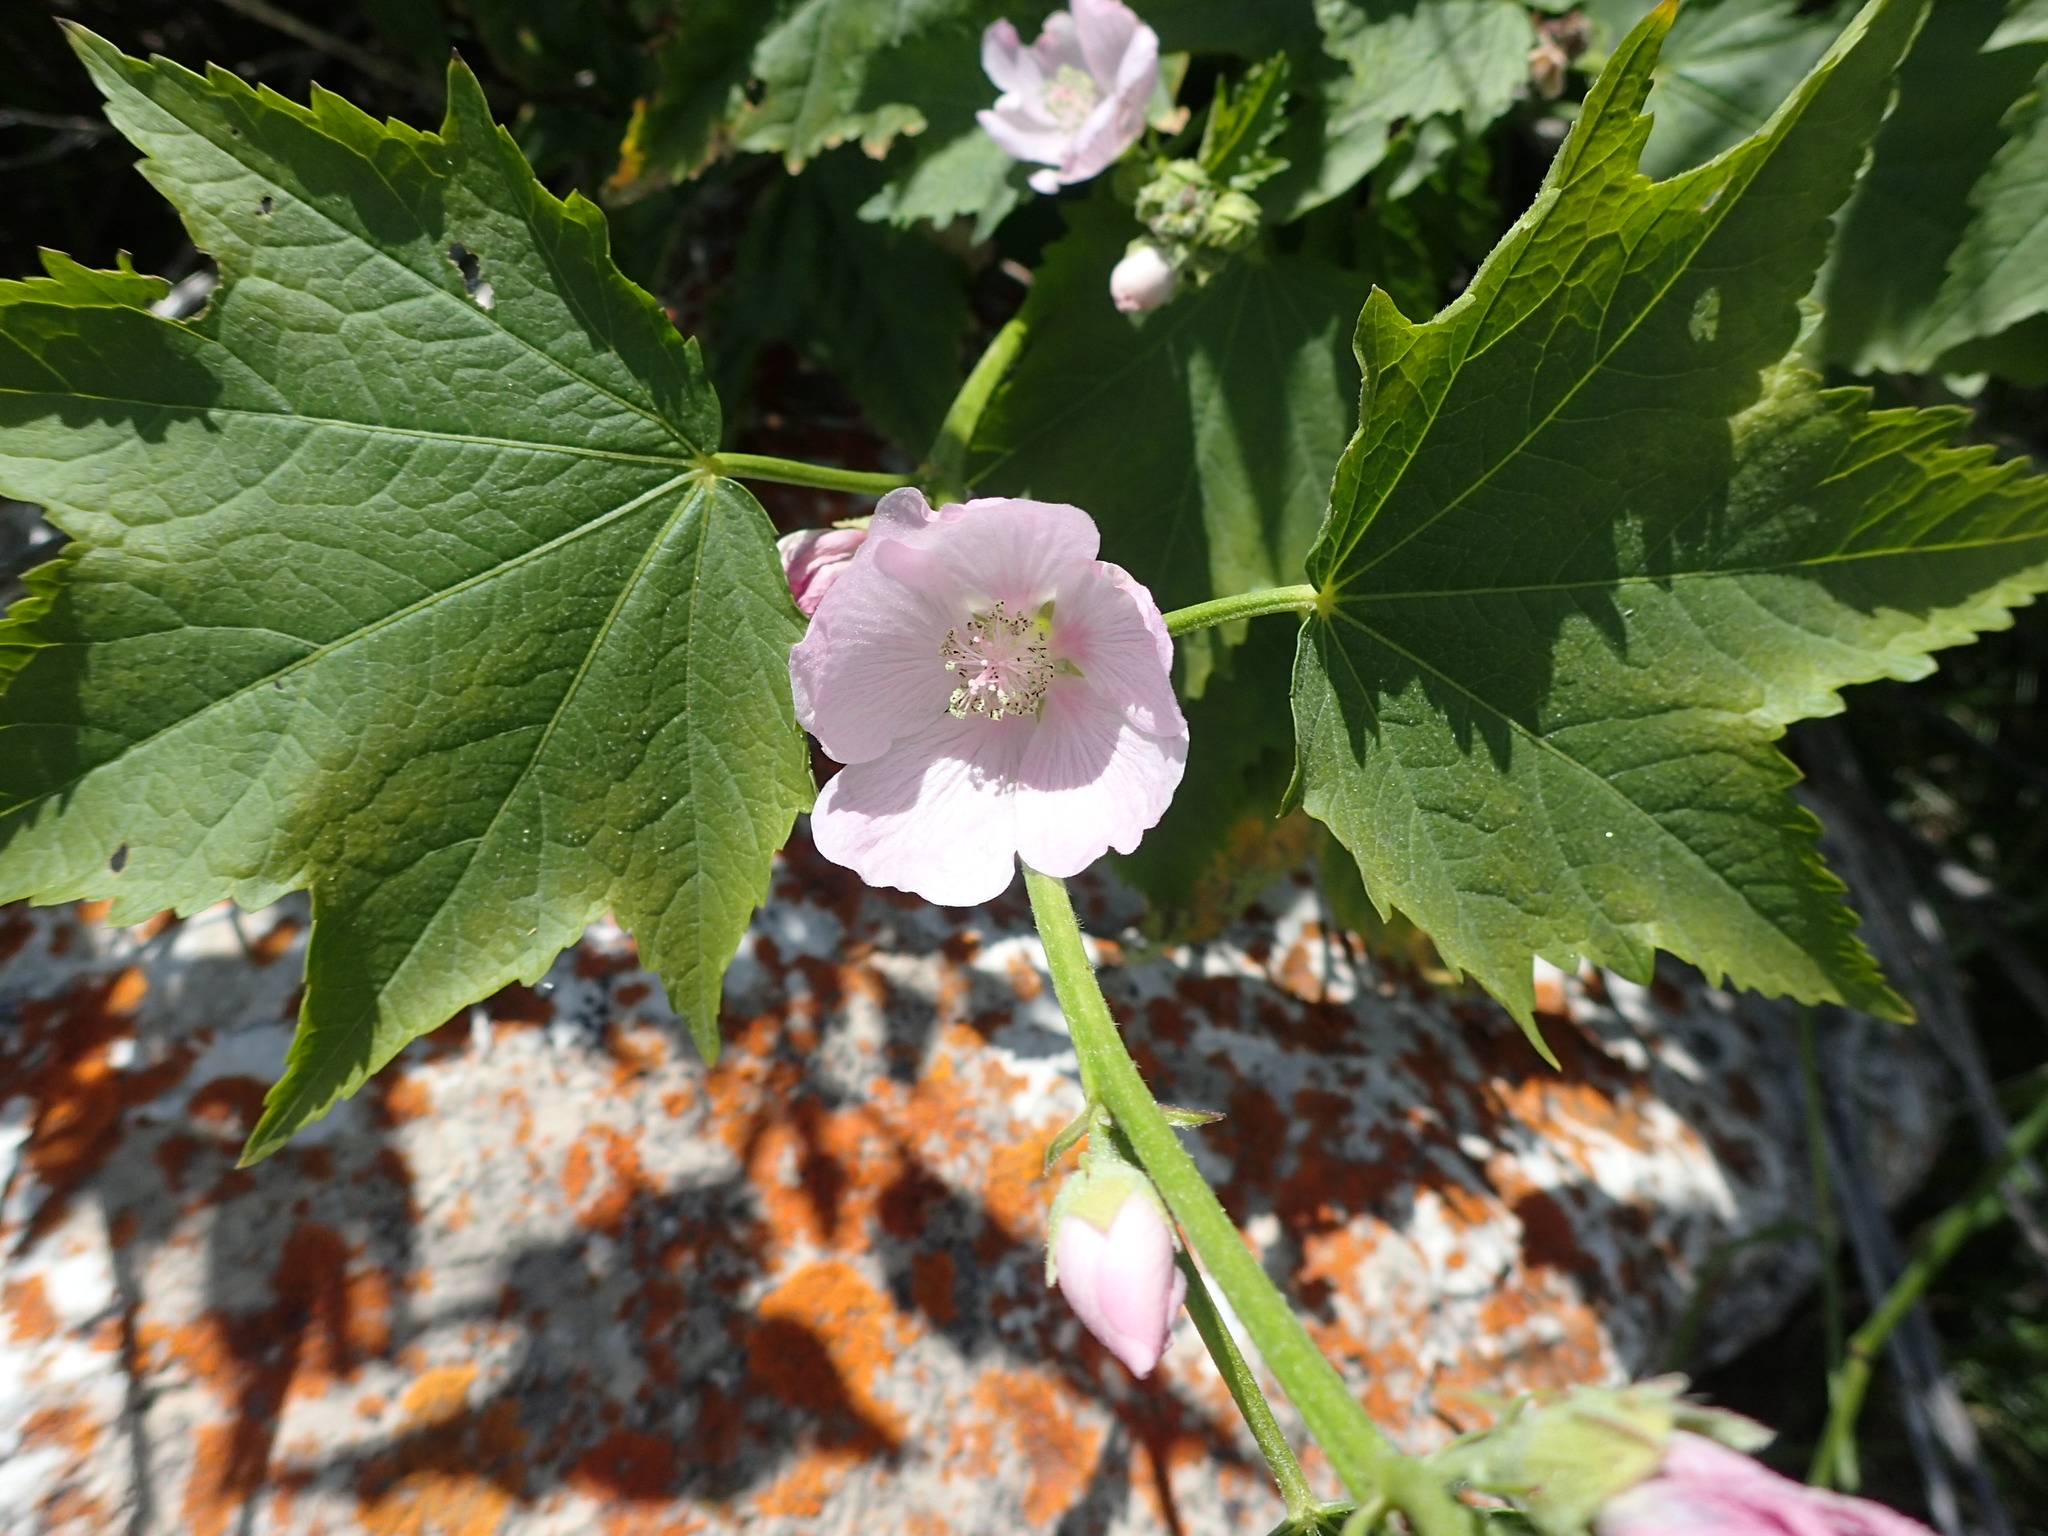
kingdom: Plantae
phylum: Tracheophyta
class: Magnoliopsida
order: Malvales
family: Malvaceae
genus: Iliamna
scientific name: Iliamna rivularis
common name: Wild hollyhock
